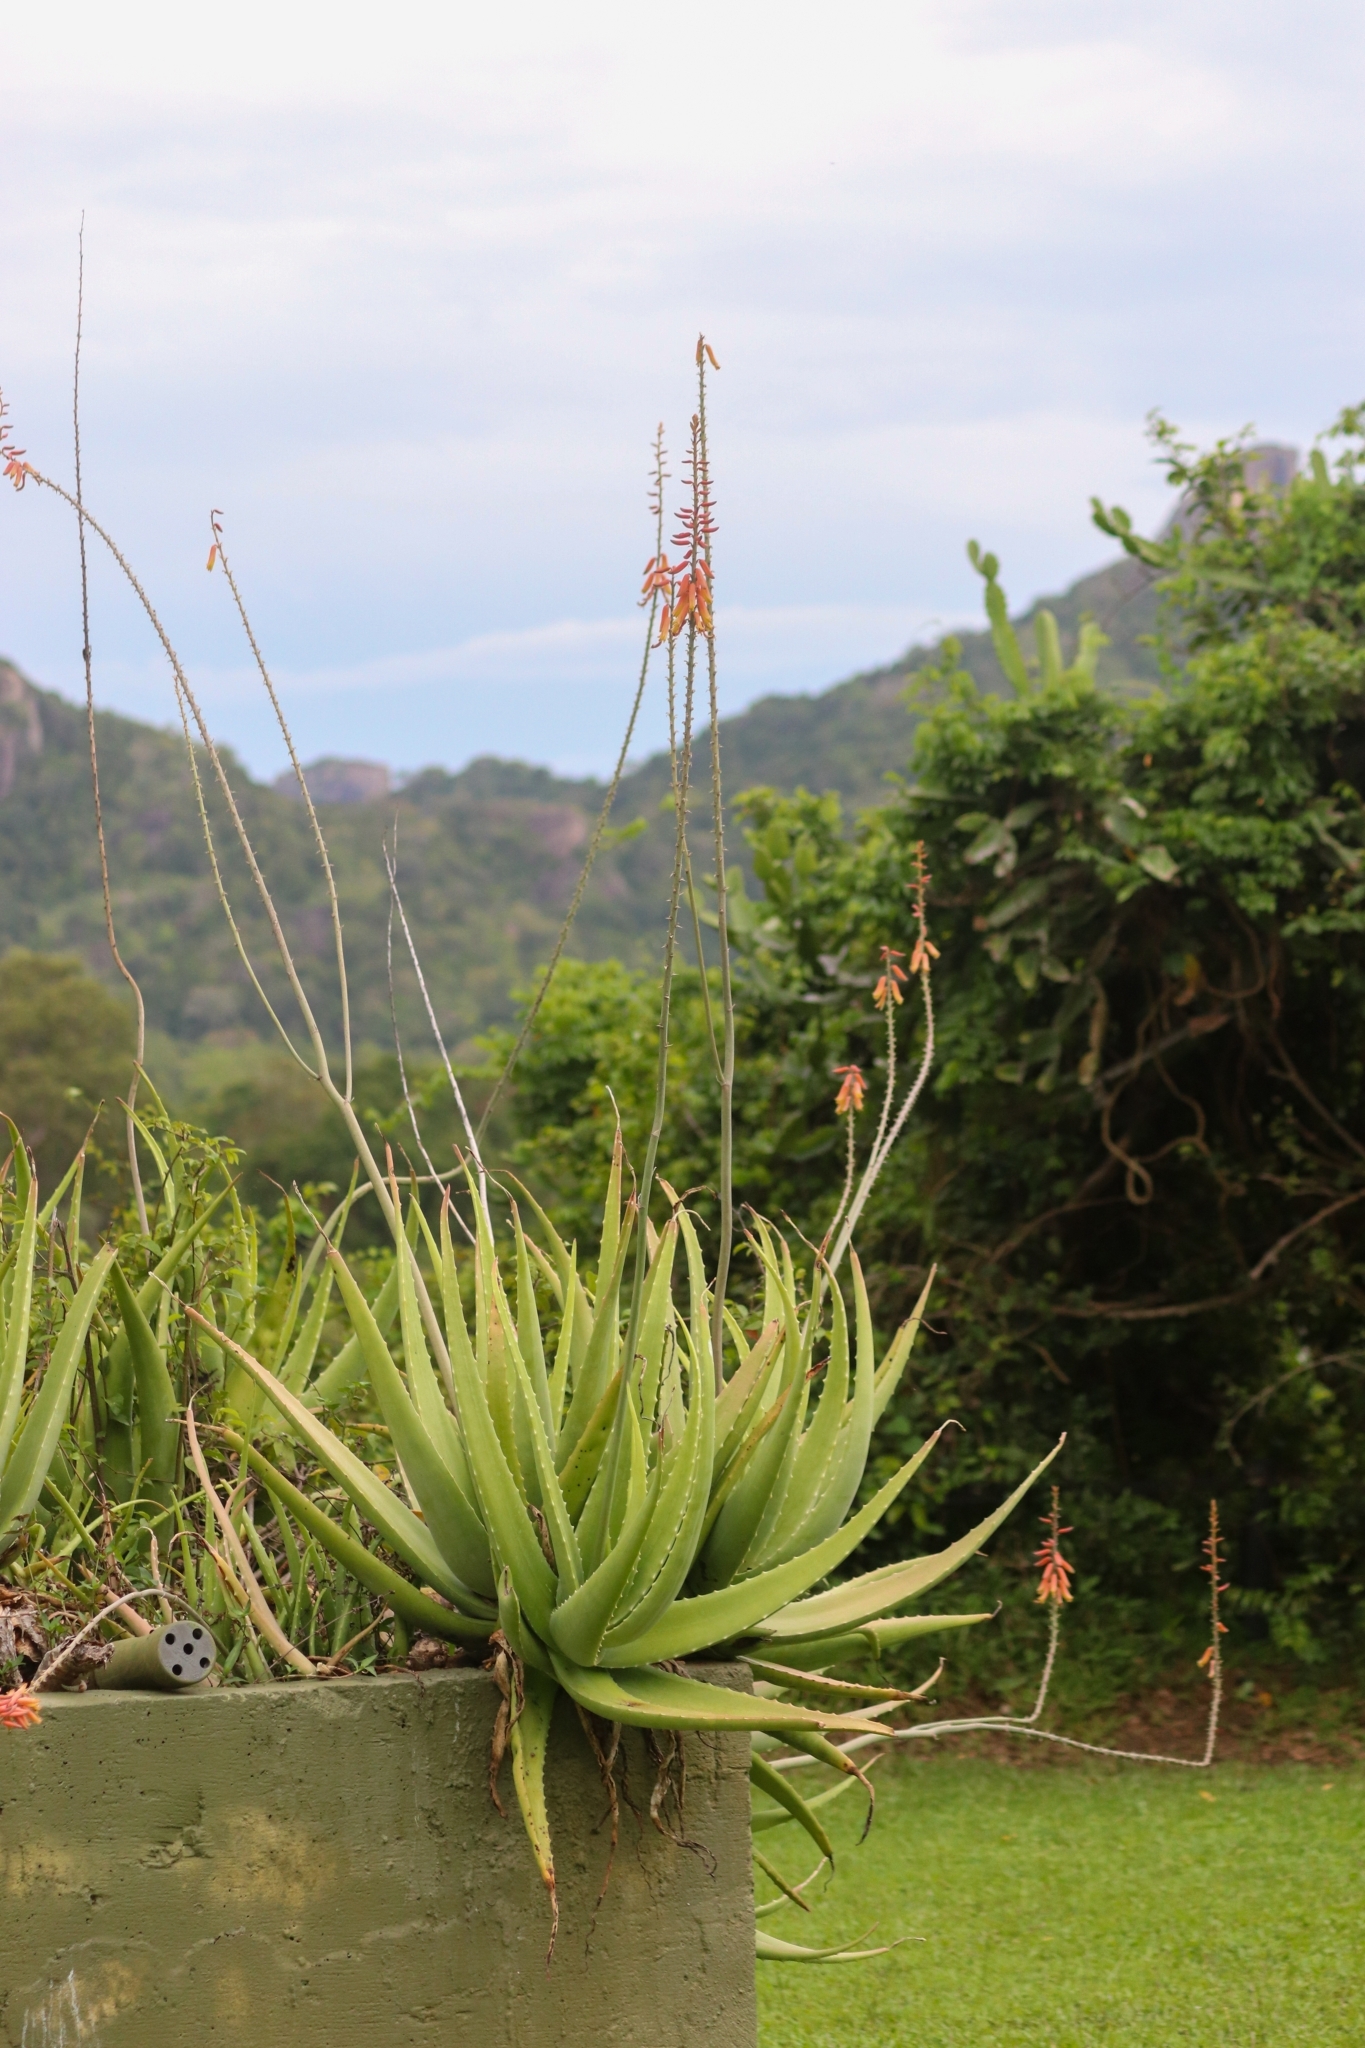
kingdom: Plantae
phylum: Tracheophyta
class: Liliopsida
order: Asparagales
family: Asphodelaceae
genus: Aloe
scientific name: Aloe vera
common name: Barbados aloe
